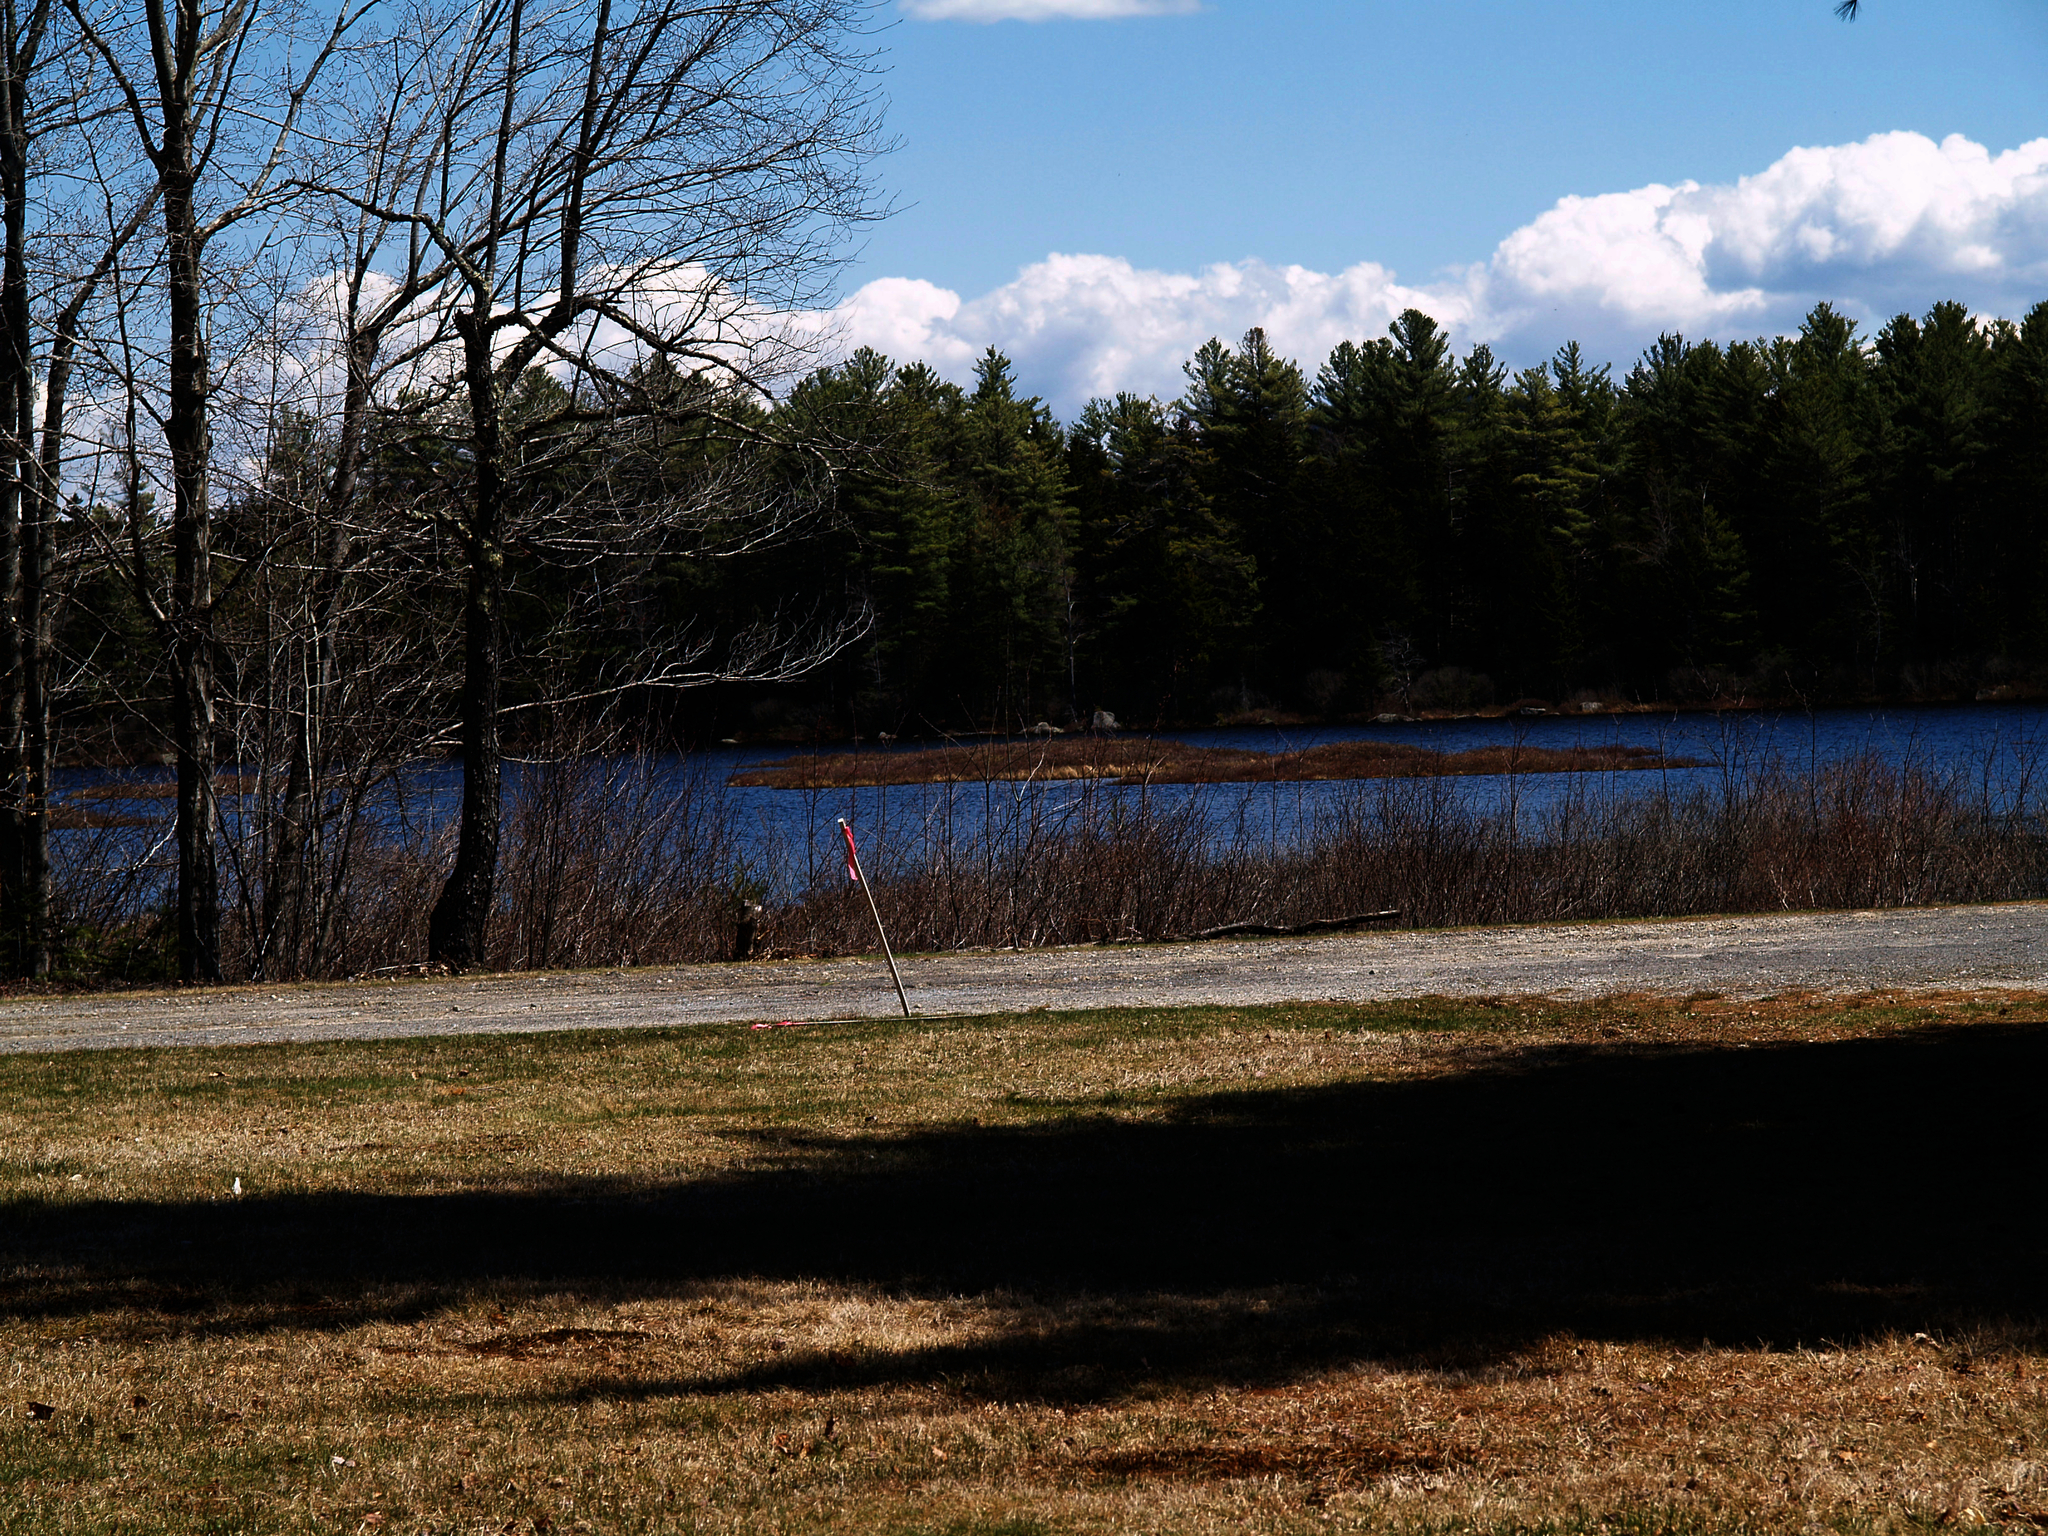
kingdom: Plantae
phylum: Tracheophyta
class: Pinopsida
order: Pinales
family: Pinaceae
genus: Pinus
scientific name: Pinus strobus
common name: Weymouth pine
